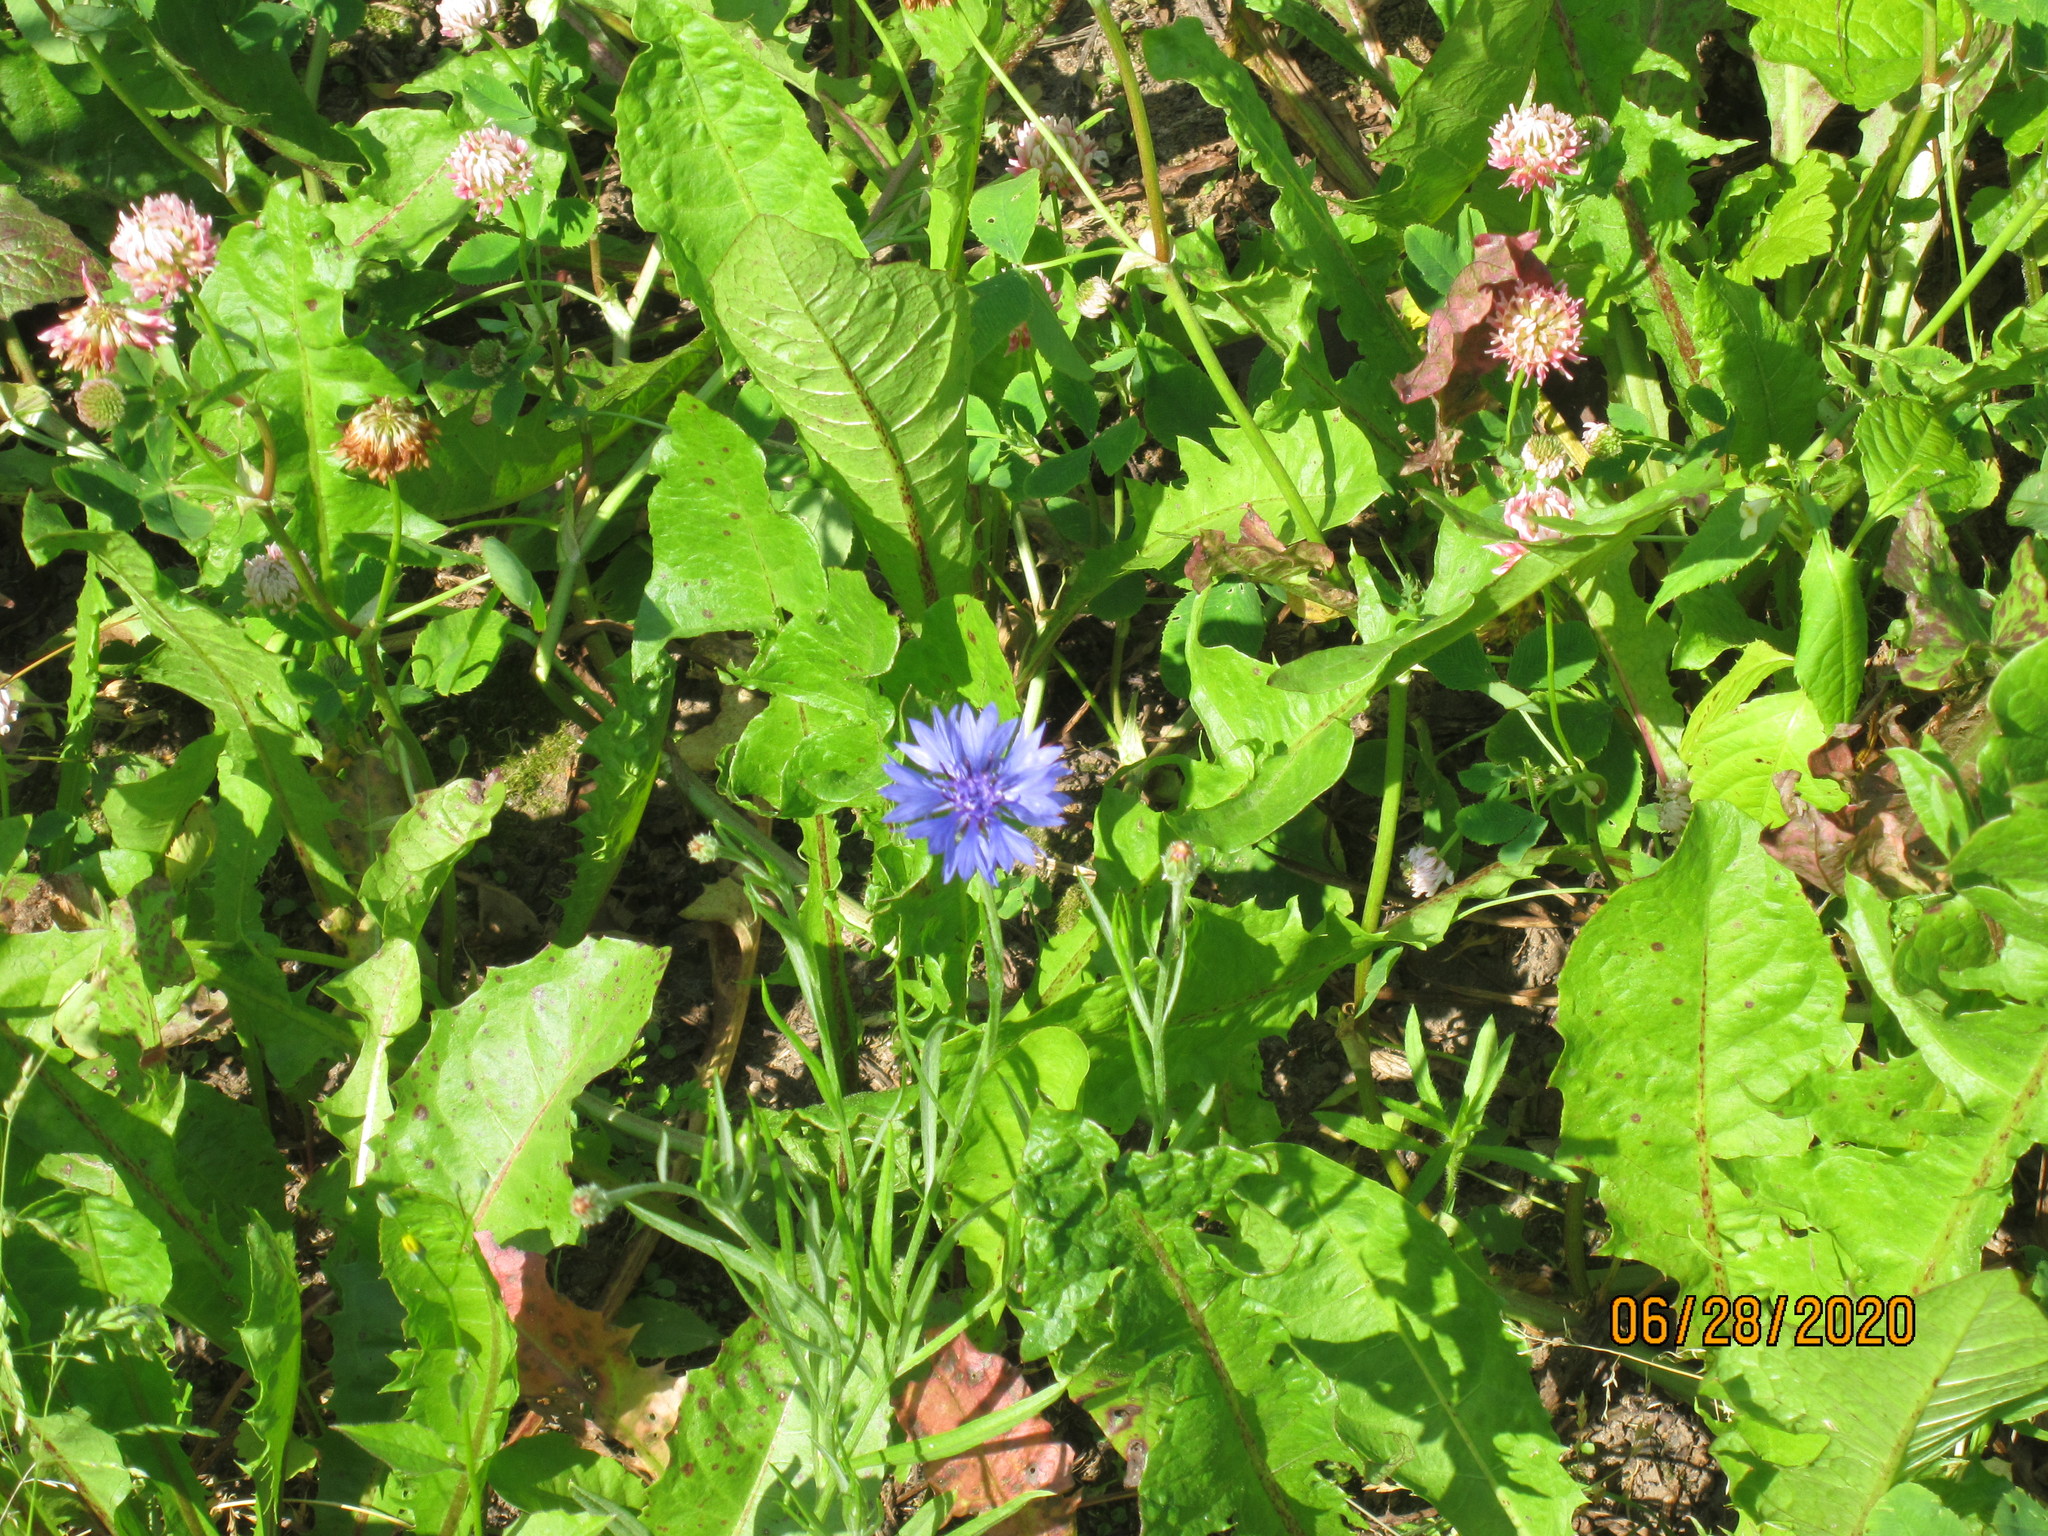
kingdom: Plantae
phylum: Tracheophyta
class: Magnoliopsida
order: Asterales
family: Asteraceae
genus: Centaurea
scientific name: Centaurea cyanus
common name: Cornflower
